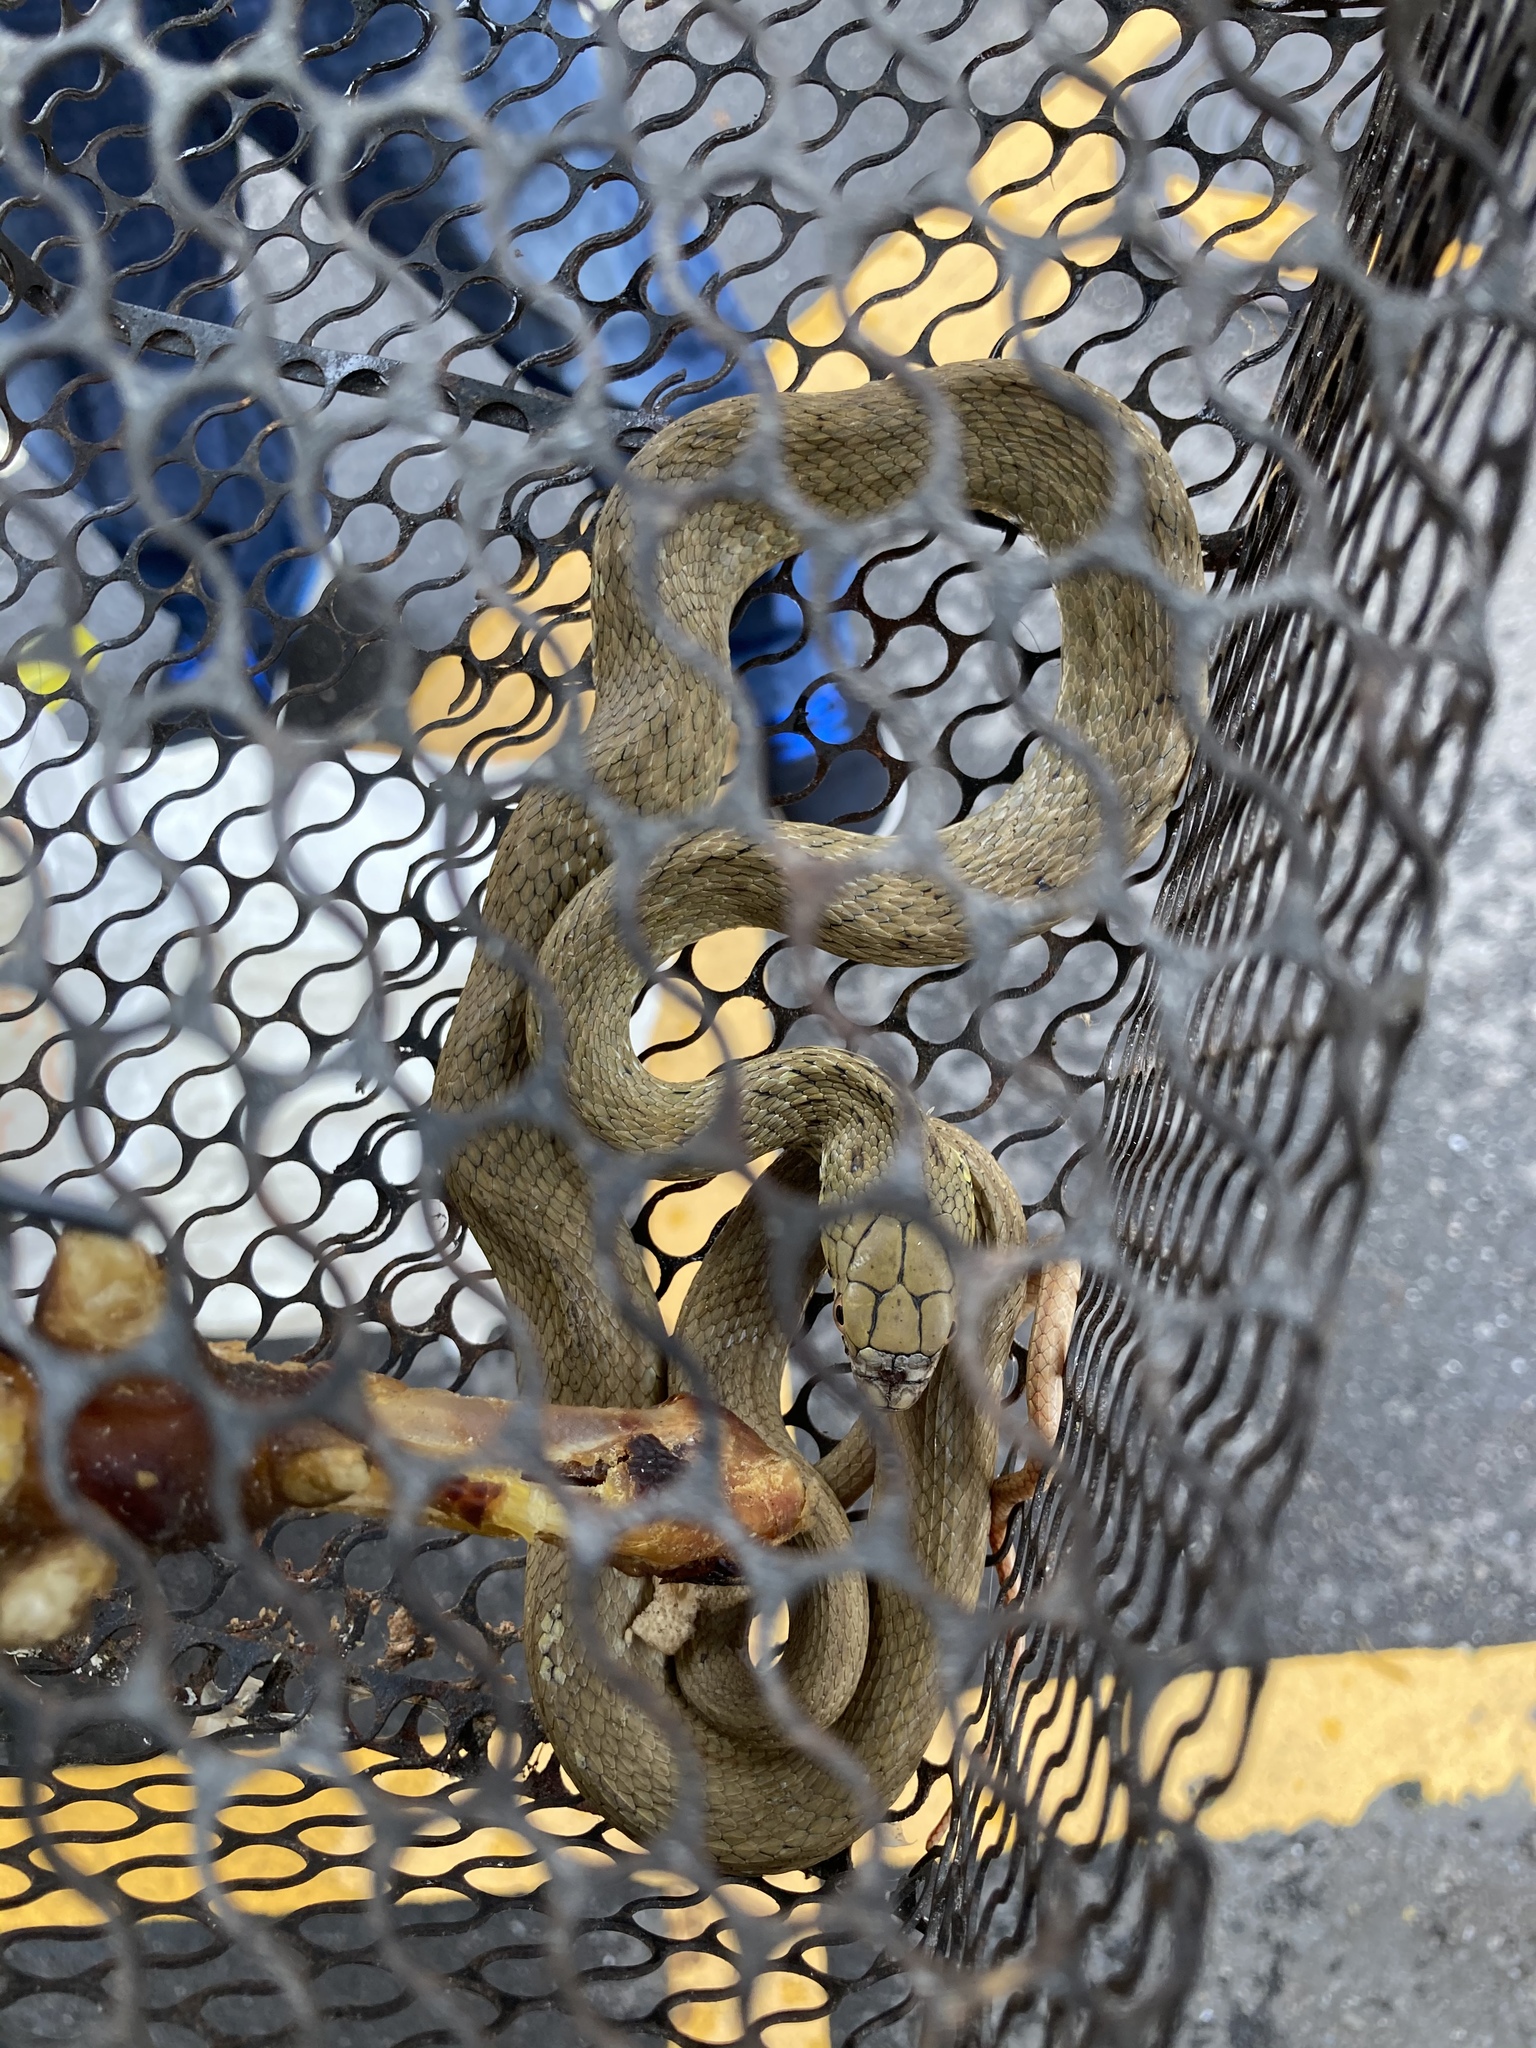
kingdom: Animalia
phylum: Chordata
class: Squamata
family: Colubridae
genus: Elaphe
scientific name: Elaphe carinata
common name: Taiwan stink snake
